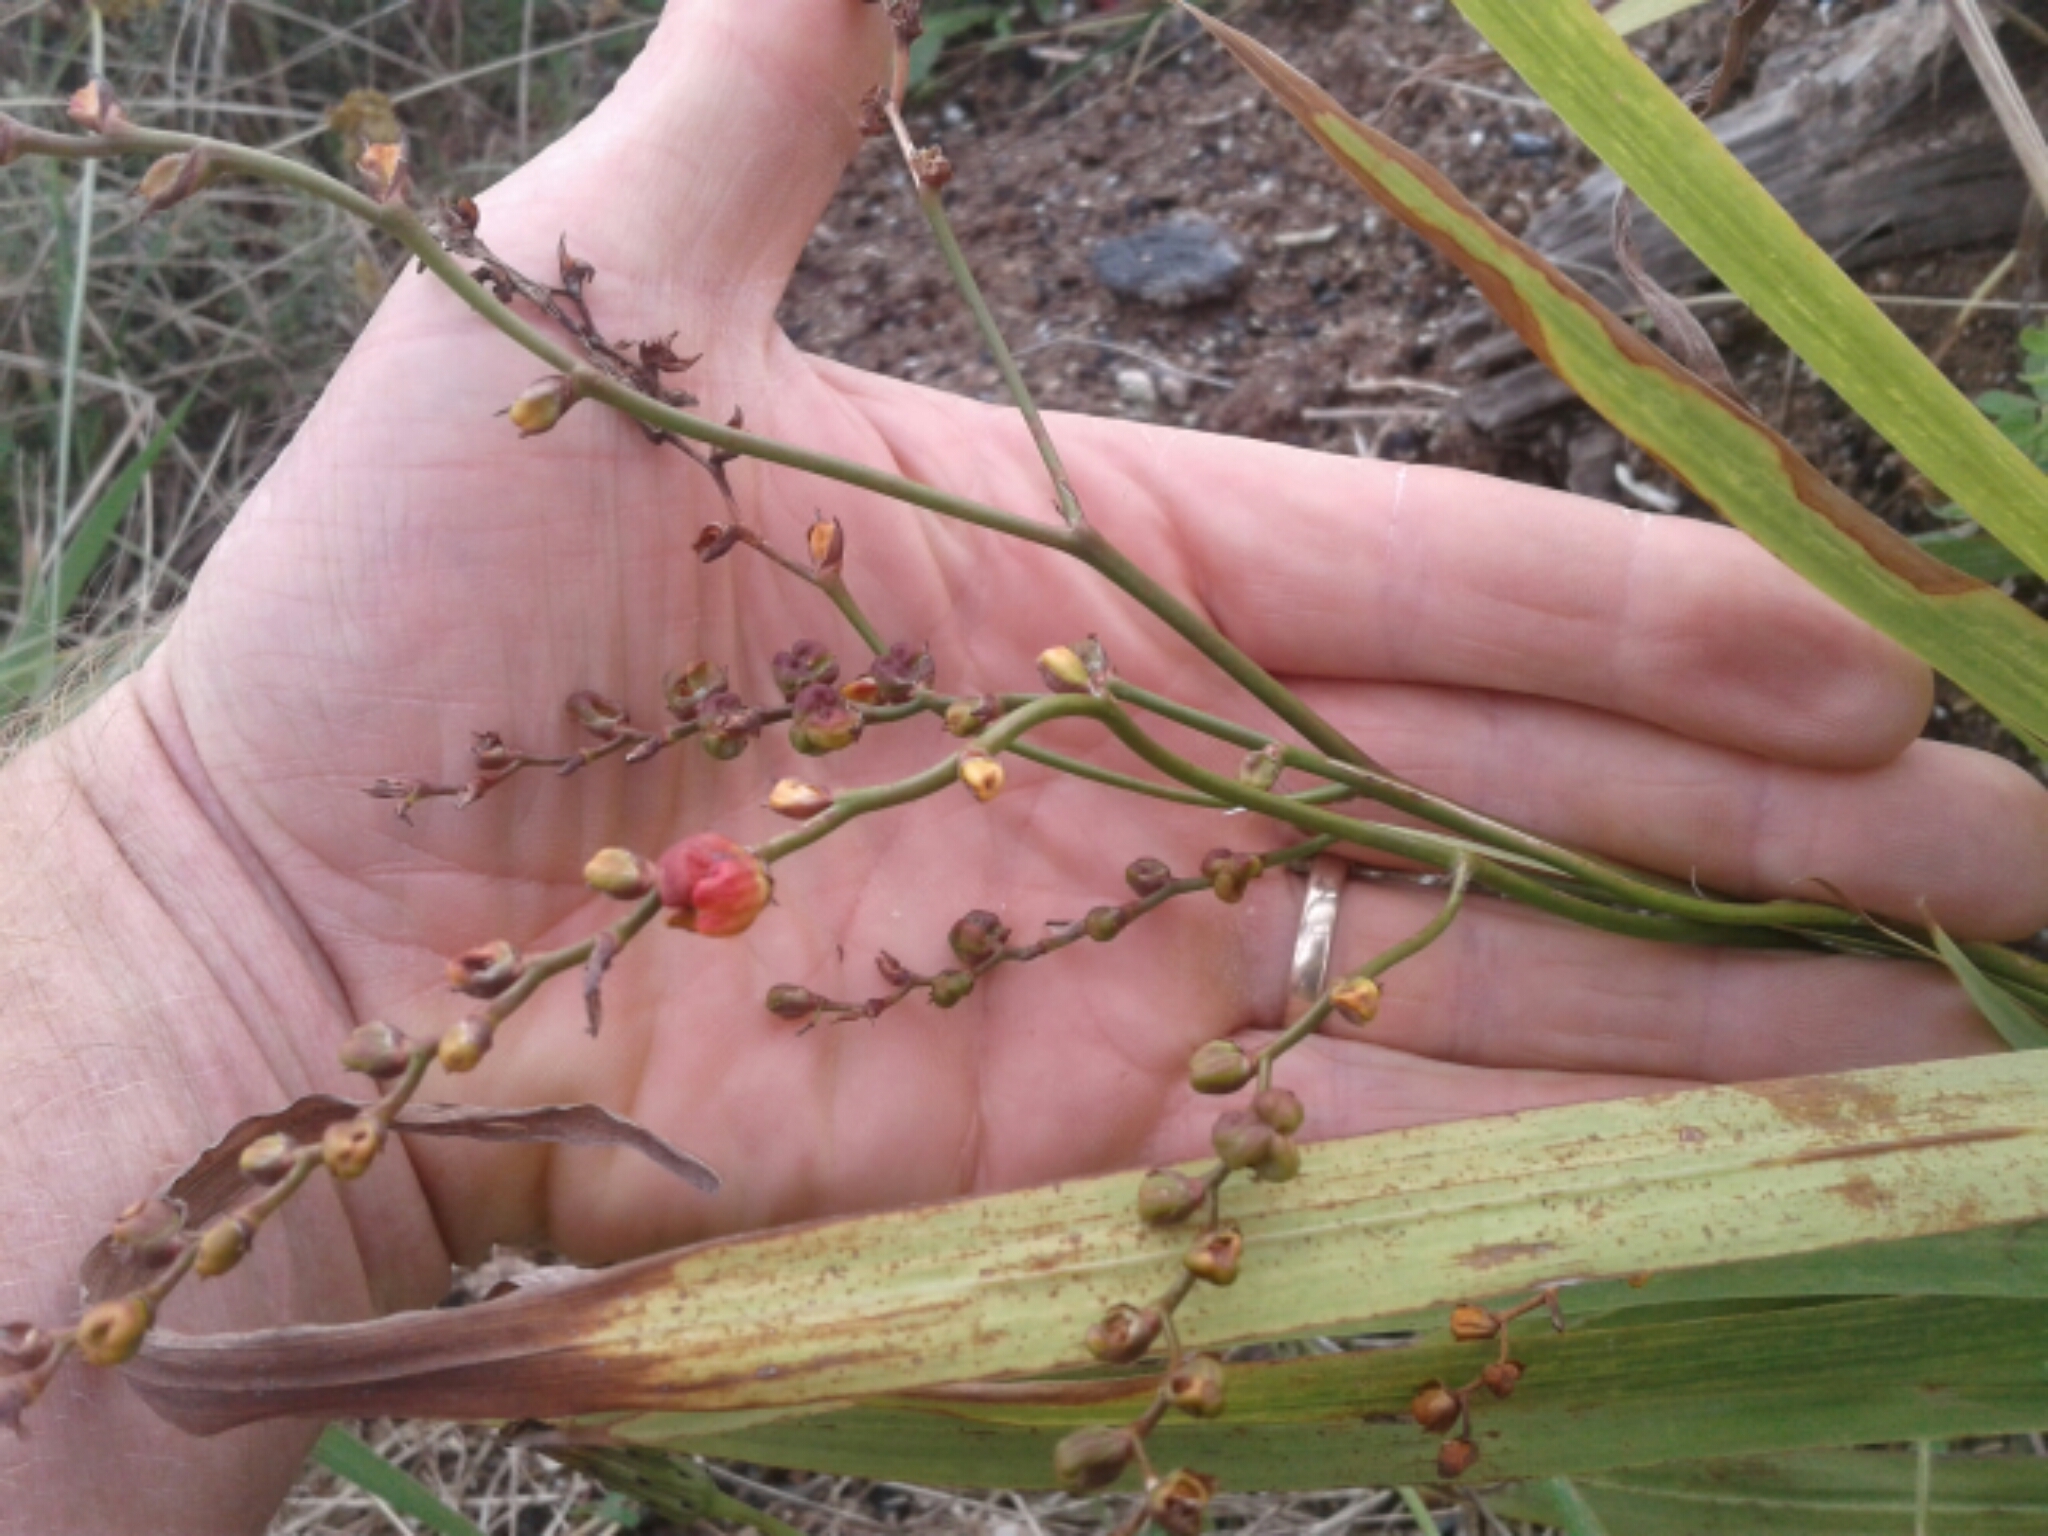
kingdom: Plantae
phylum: Tracheophyta
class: Liliopsida
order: Asparagales
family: Iridaceae
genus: Crocosmia
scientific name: Crocosmia crocosmiiflora
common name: Montbretia
